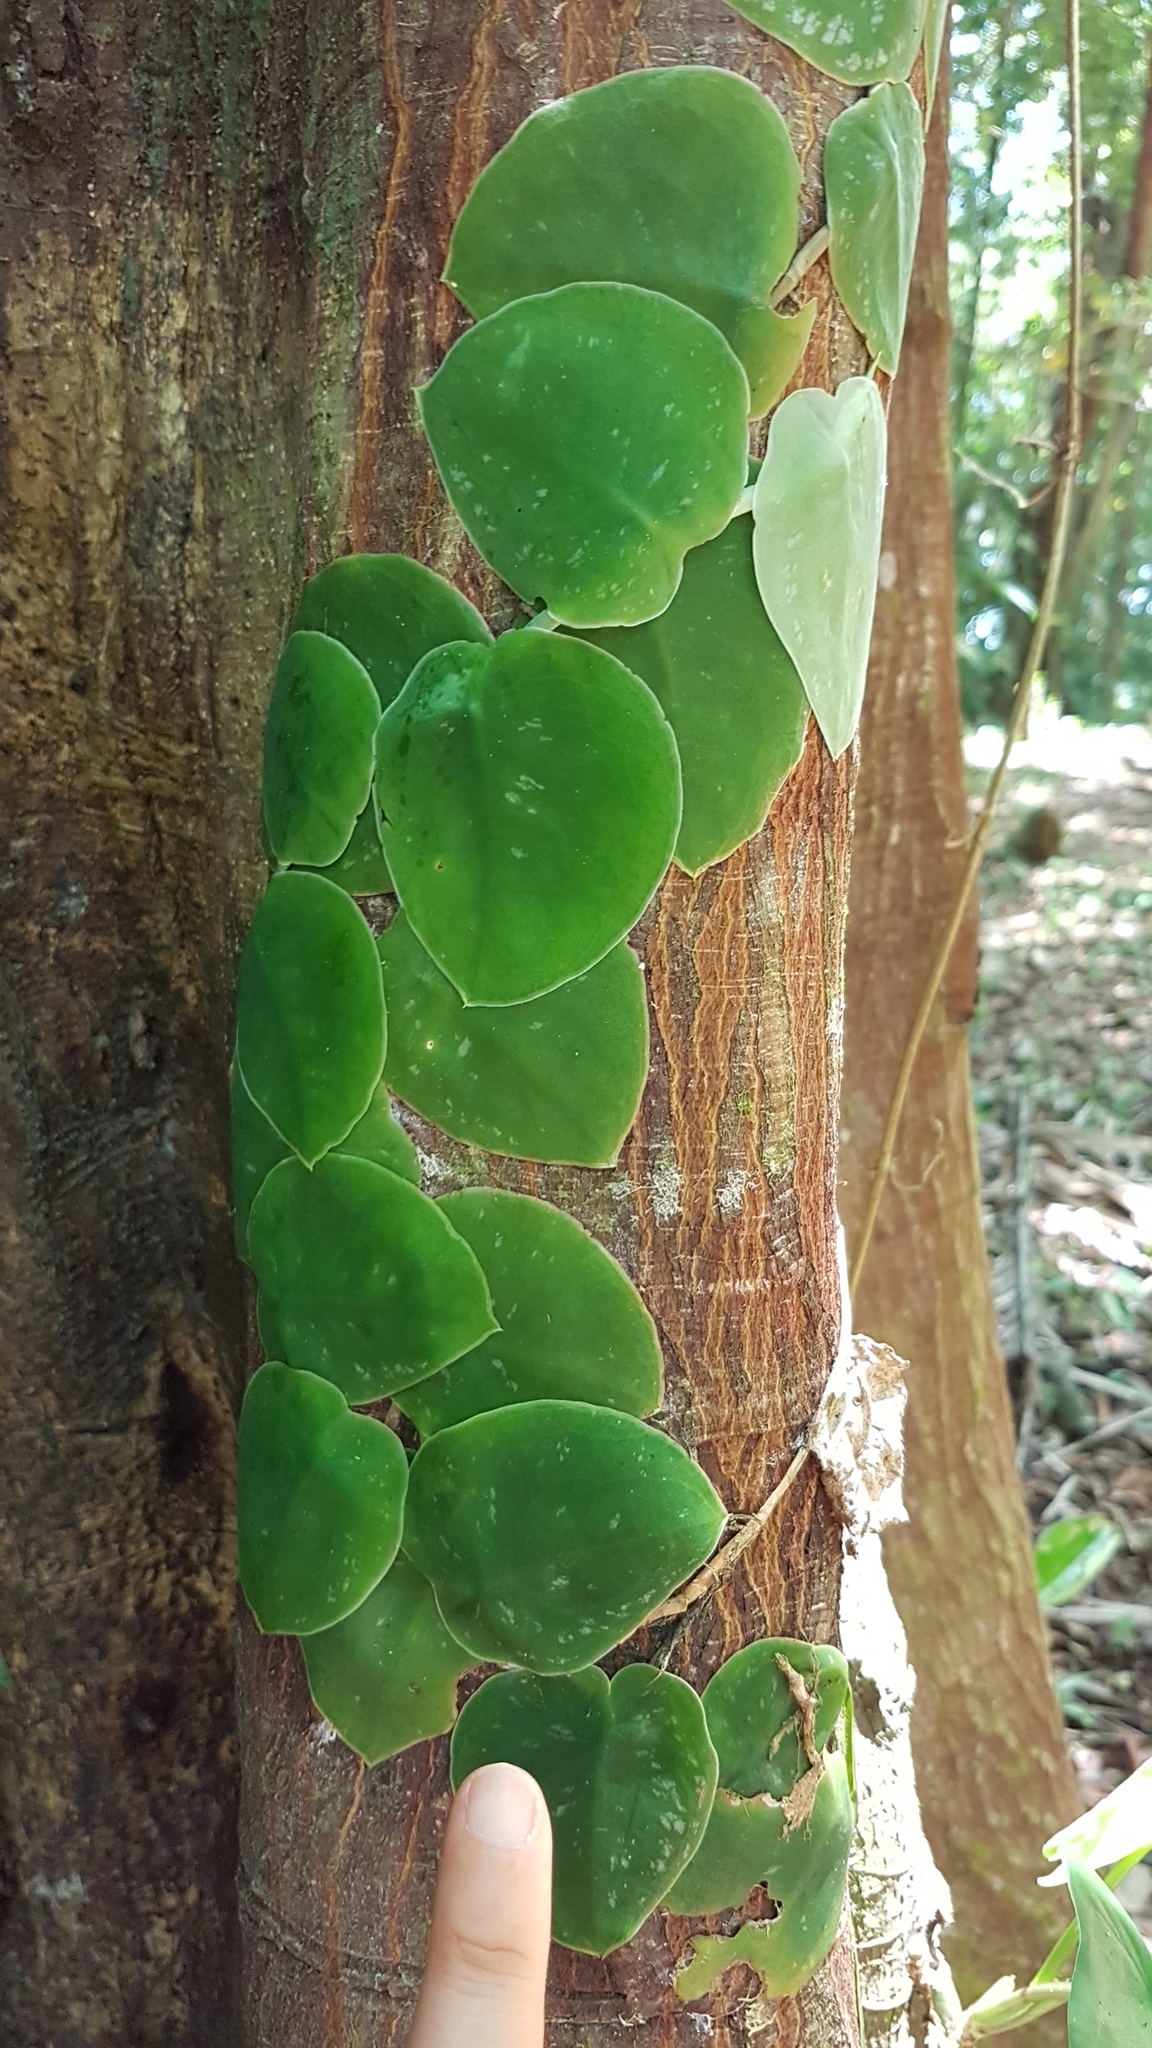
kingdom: Plantae
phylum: Tracheophyta
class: Liliopsida
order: Alismatales
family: Araceae
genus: Monstera
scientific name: Monstera tuberculata
